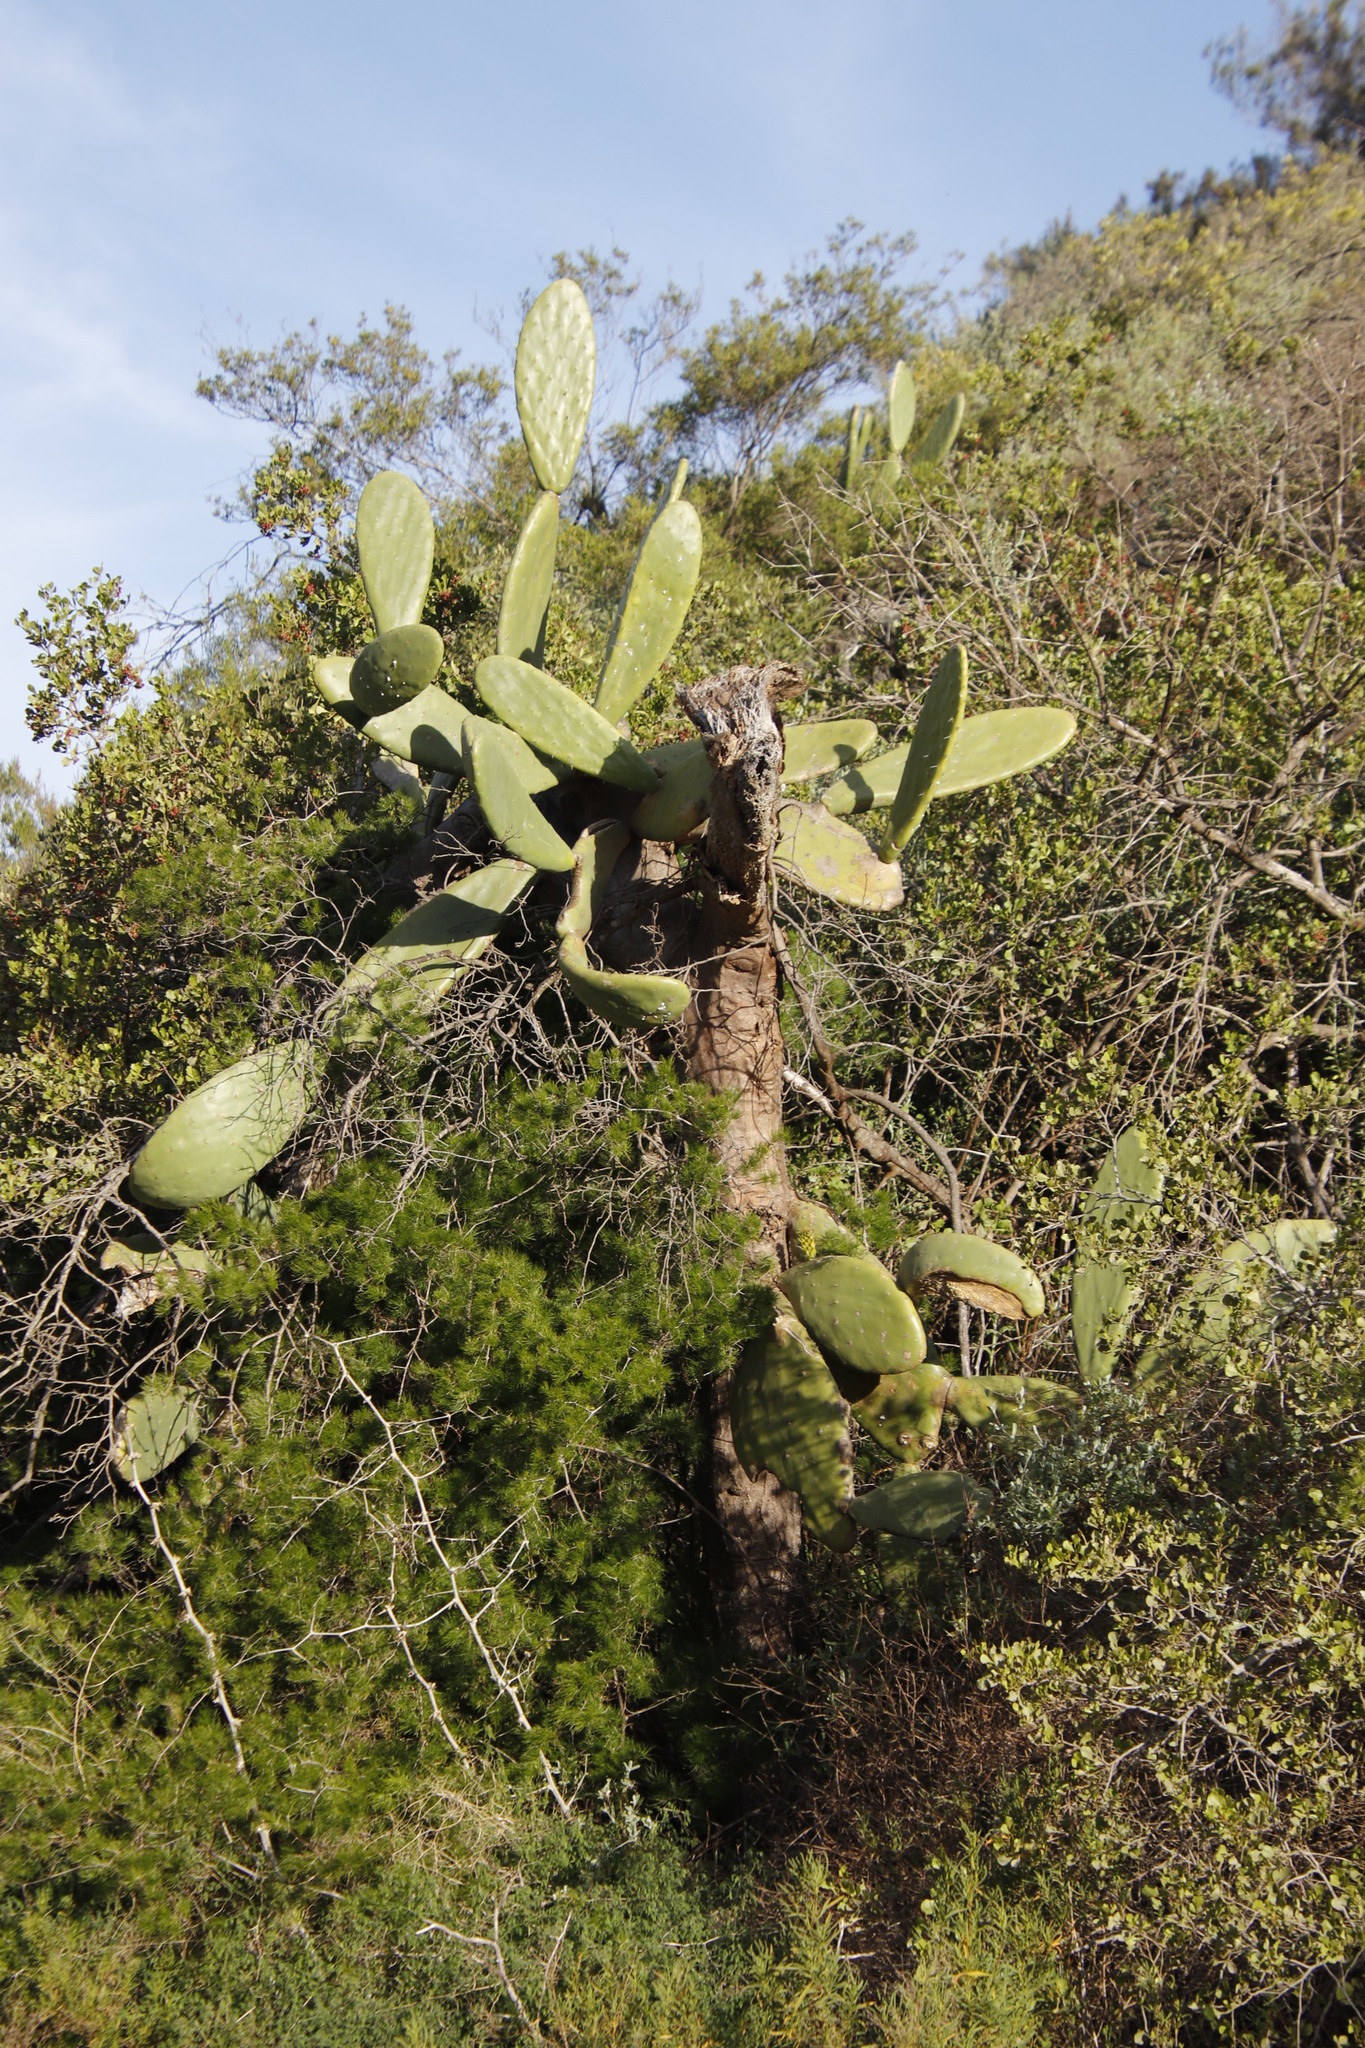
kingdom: Plantae
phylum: Tracheophyta
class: Magnoliopsida
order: Caryophyllales
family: Cactaceae
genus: Opuntia
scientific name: Opuntia ficus-indica
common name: Barbary fig
